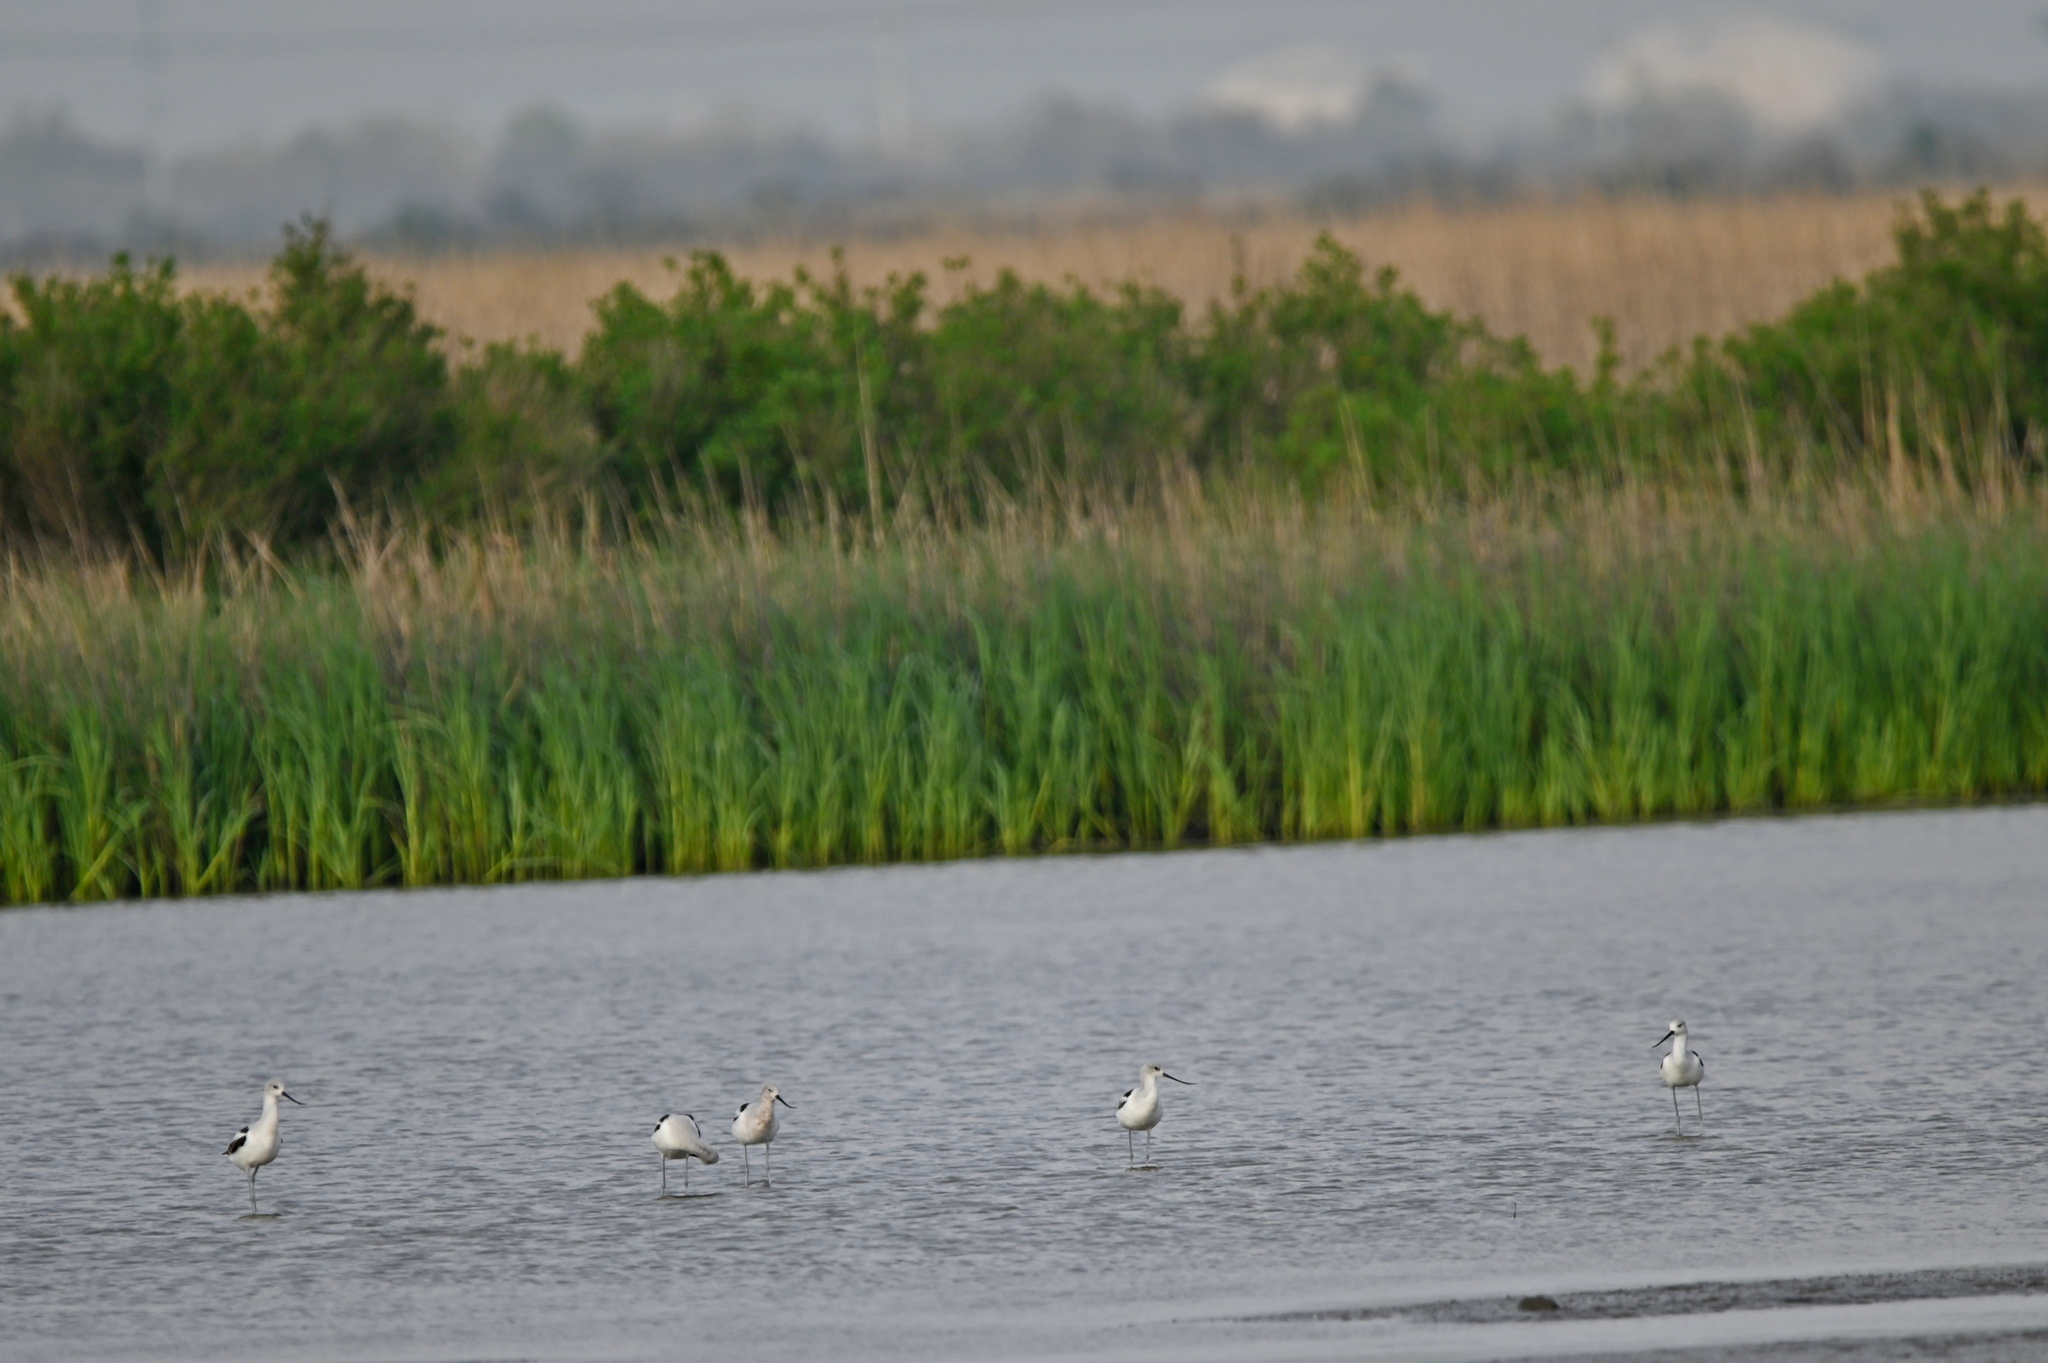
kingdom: Animalia
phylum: Chordata
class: Aves
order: Charadriiformes
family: Recurvirostridae
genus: Recurvirostra
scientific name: Recurvirostra americana
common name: American avocet
